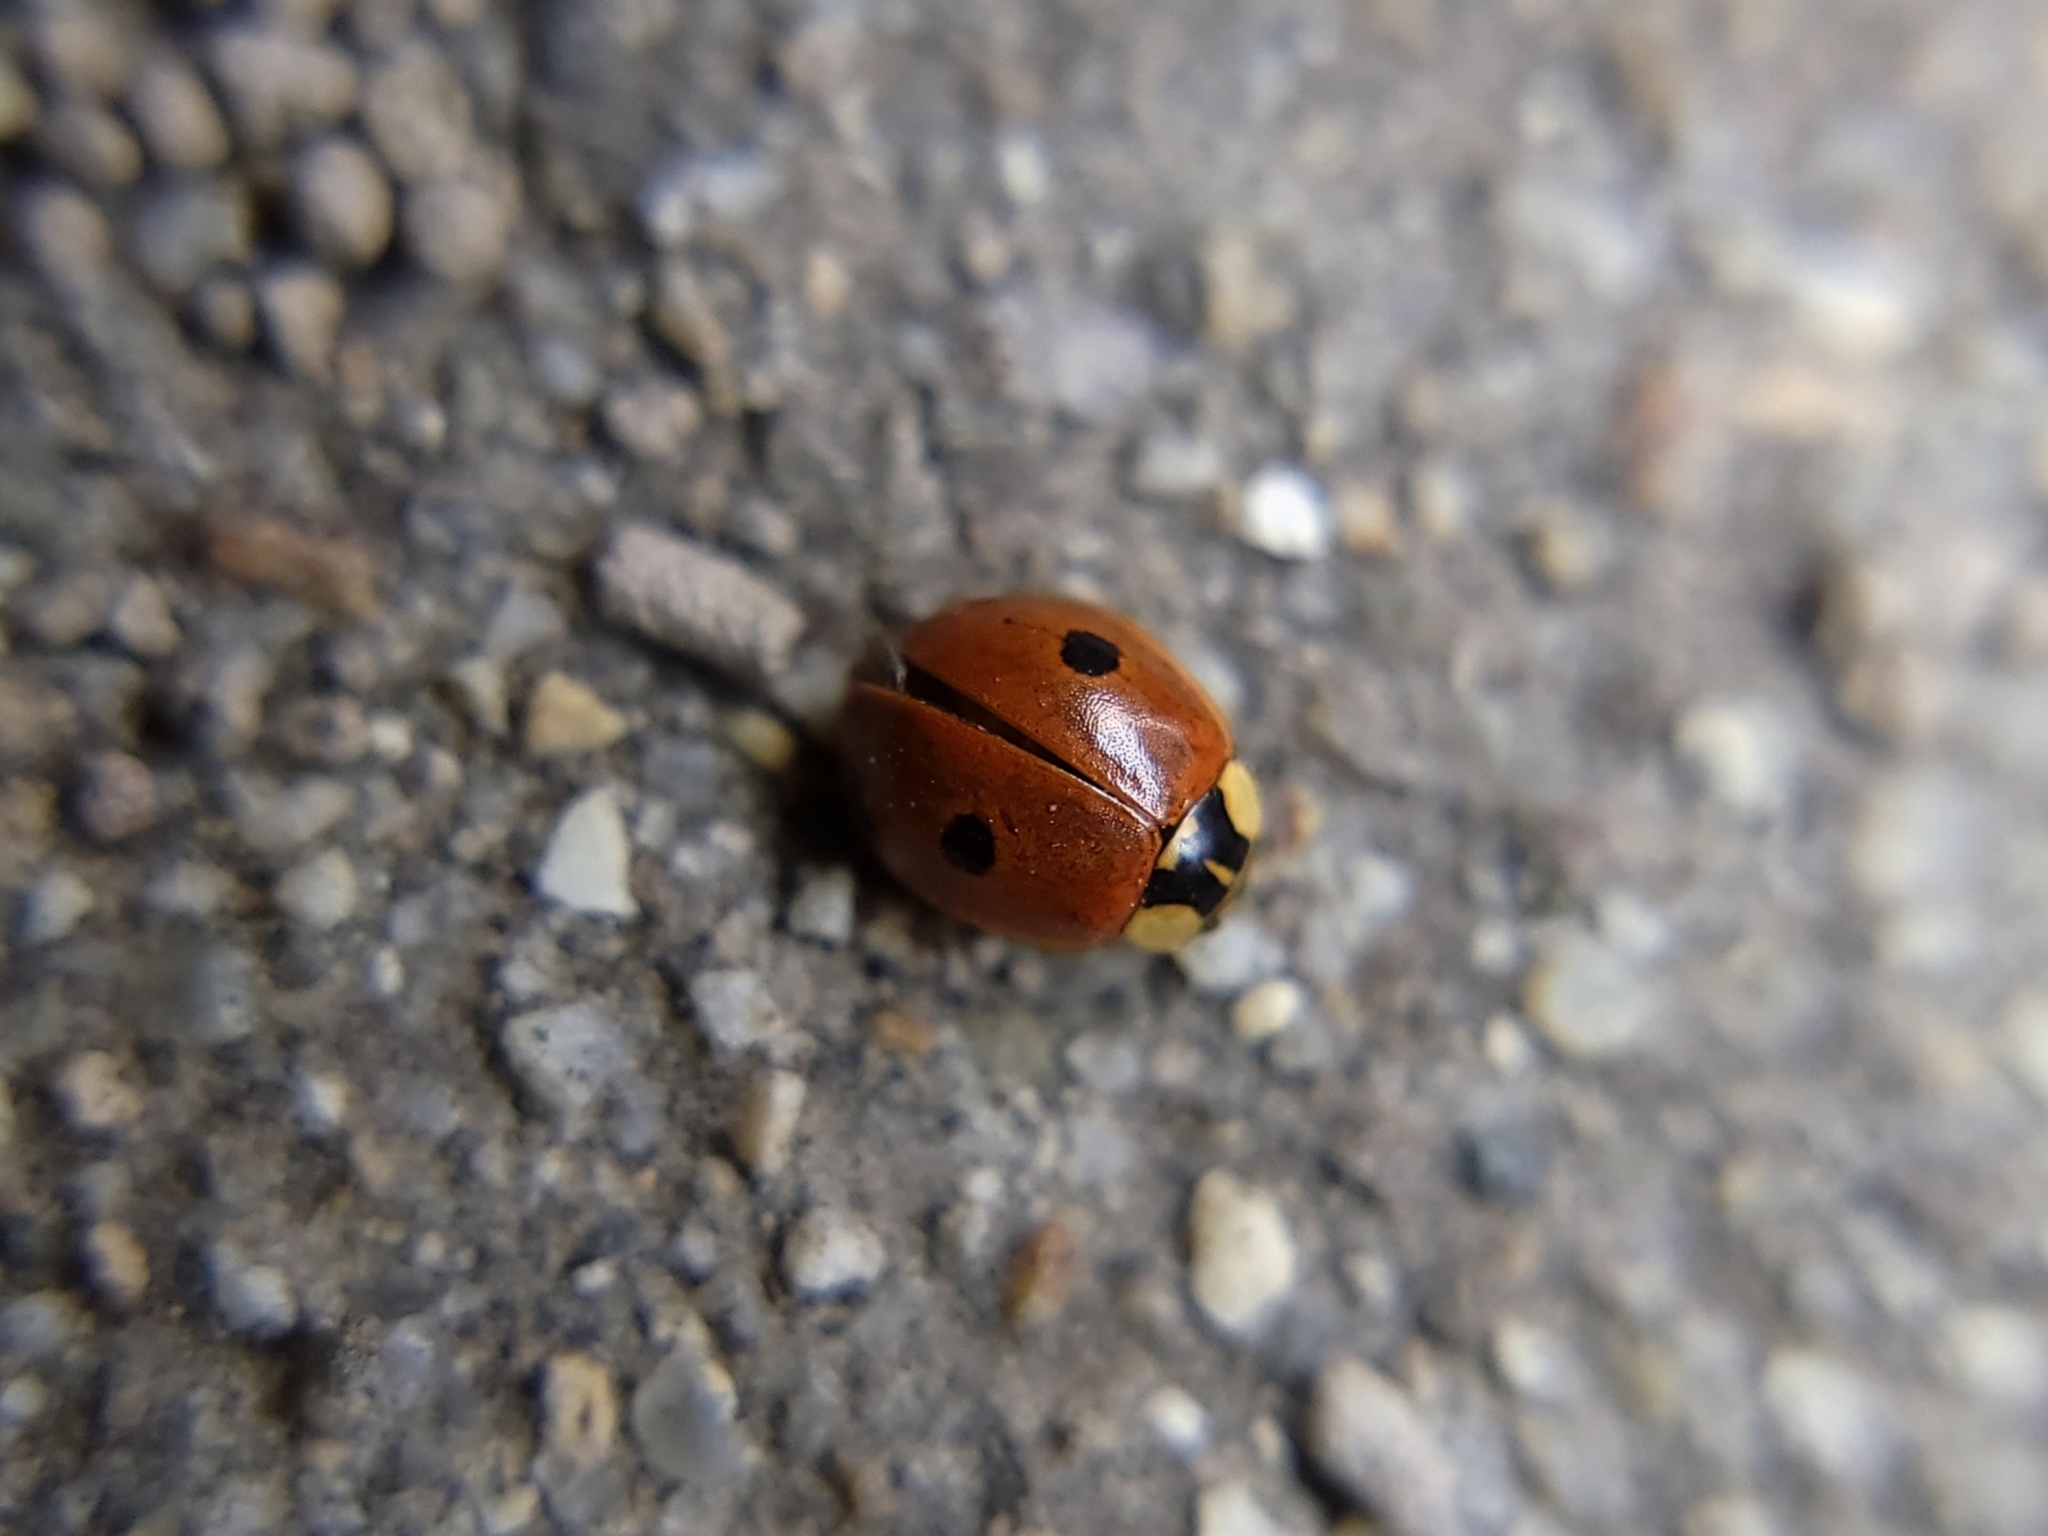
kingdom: Animalia
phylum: Arthropoda
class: Insecta
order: Coleoptera
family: Coccinellidae
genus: Adalia
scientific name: Adalia bipunctata
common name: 2-spot ladybird
